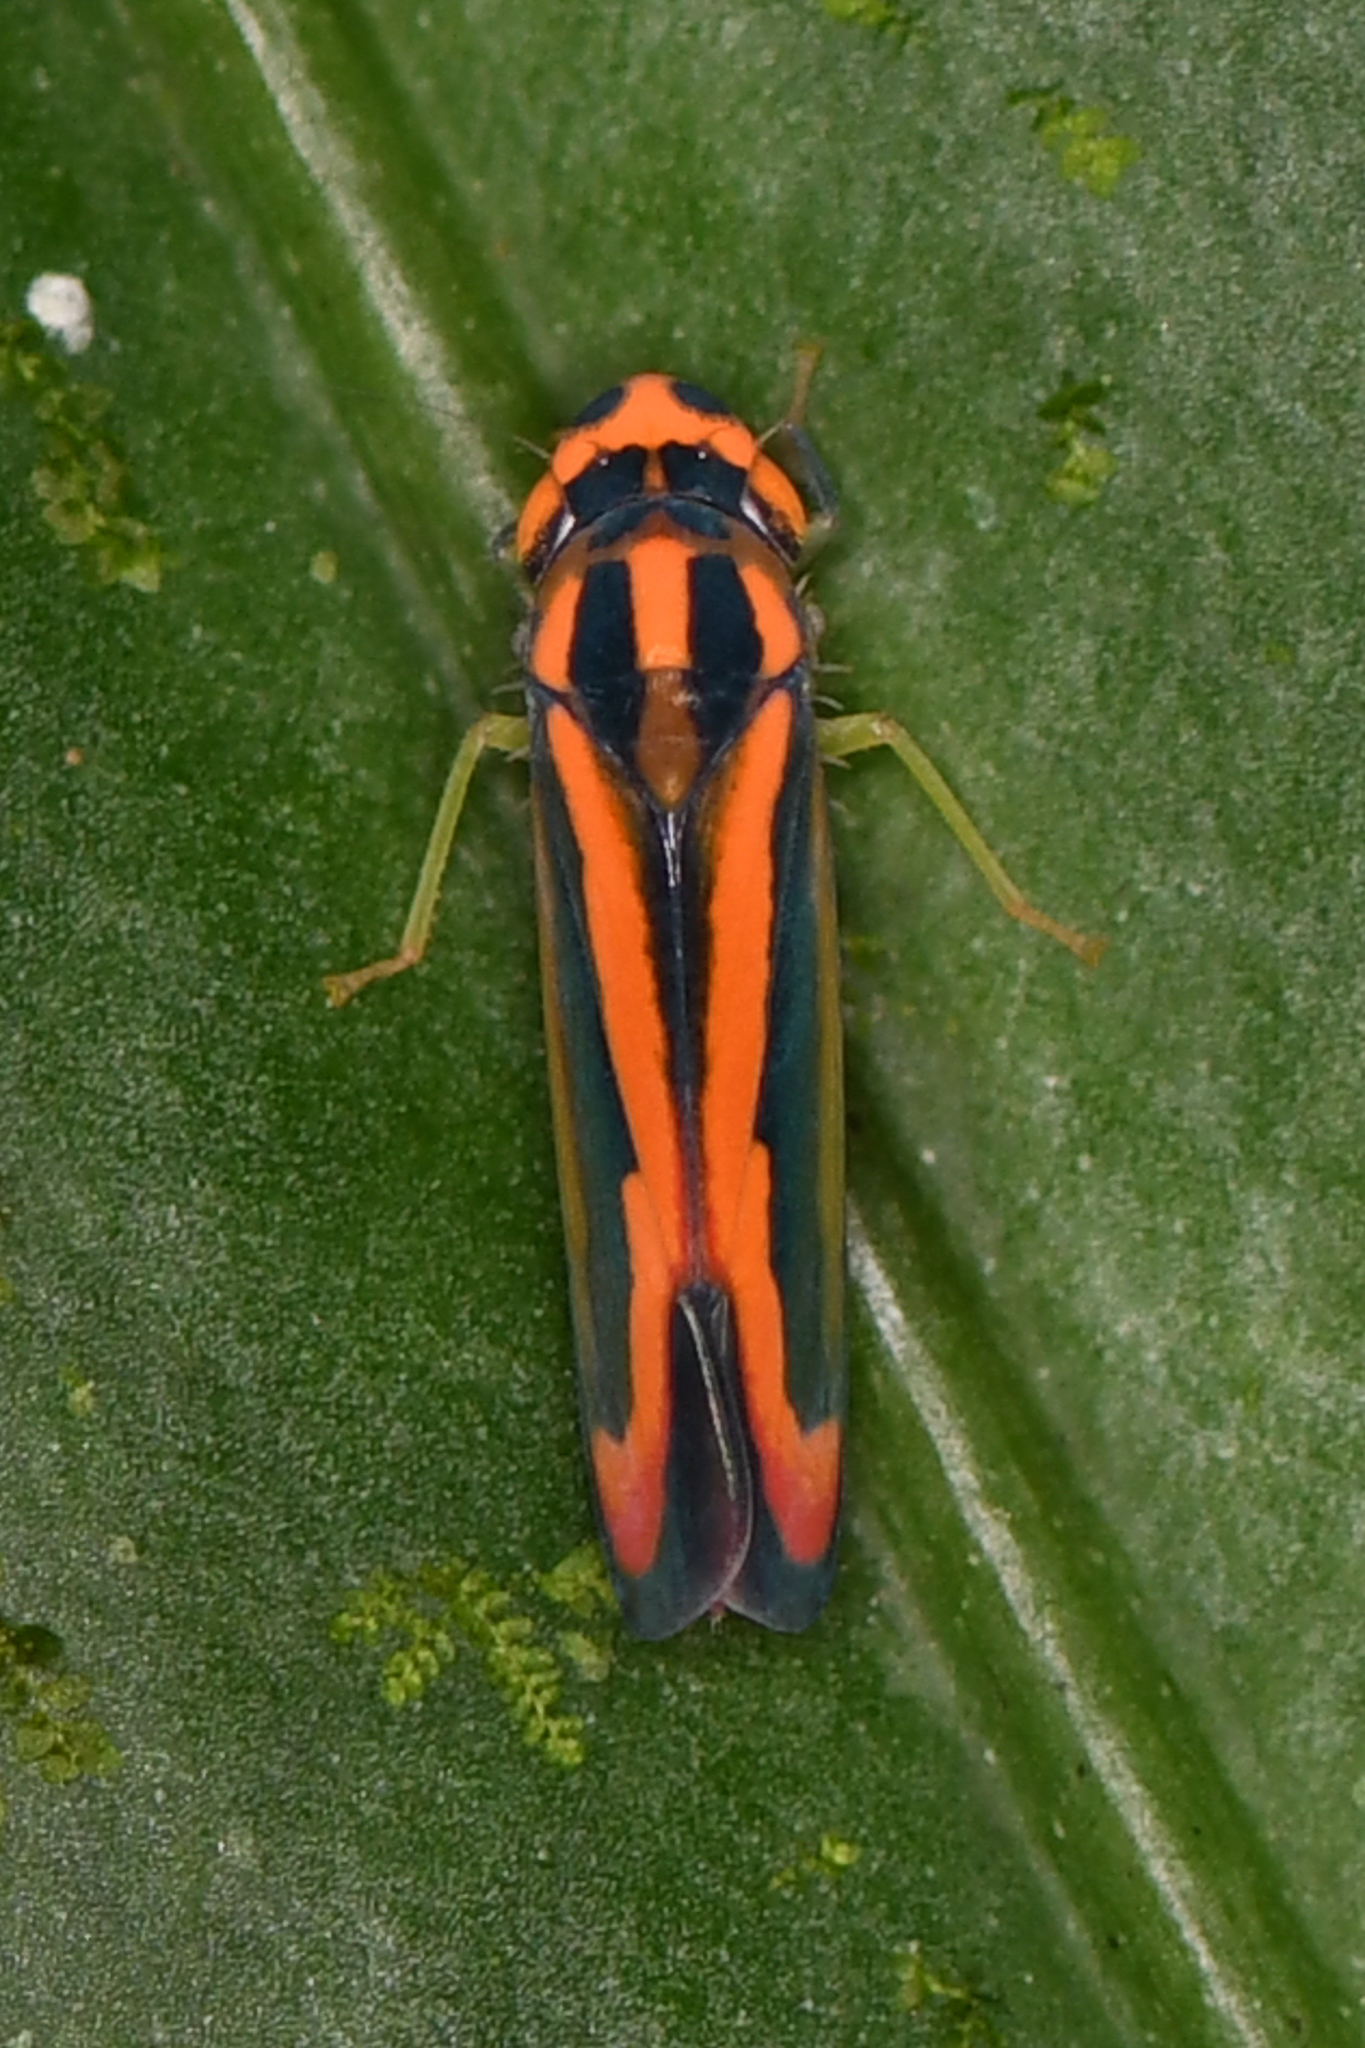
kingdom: Animalia
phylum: Arthropoda
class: Insecta
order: Hemiptera
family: Cicadellidae
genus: Soosiulus
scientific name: Soosiulus fucatus
